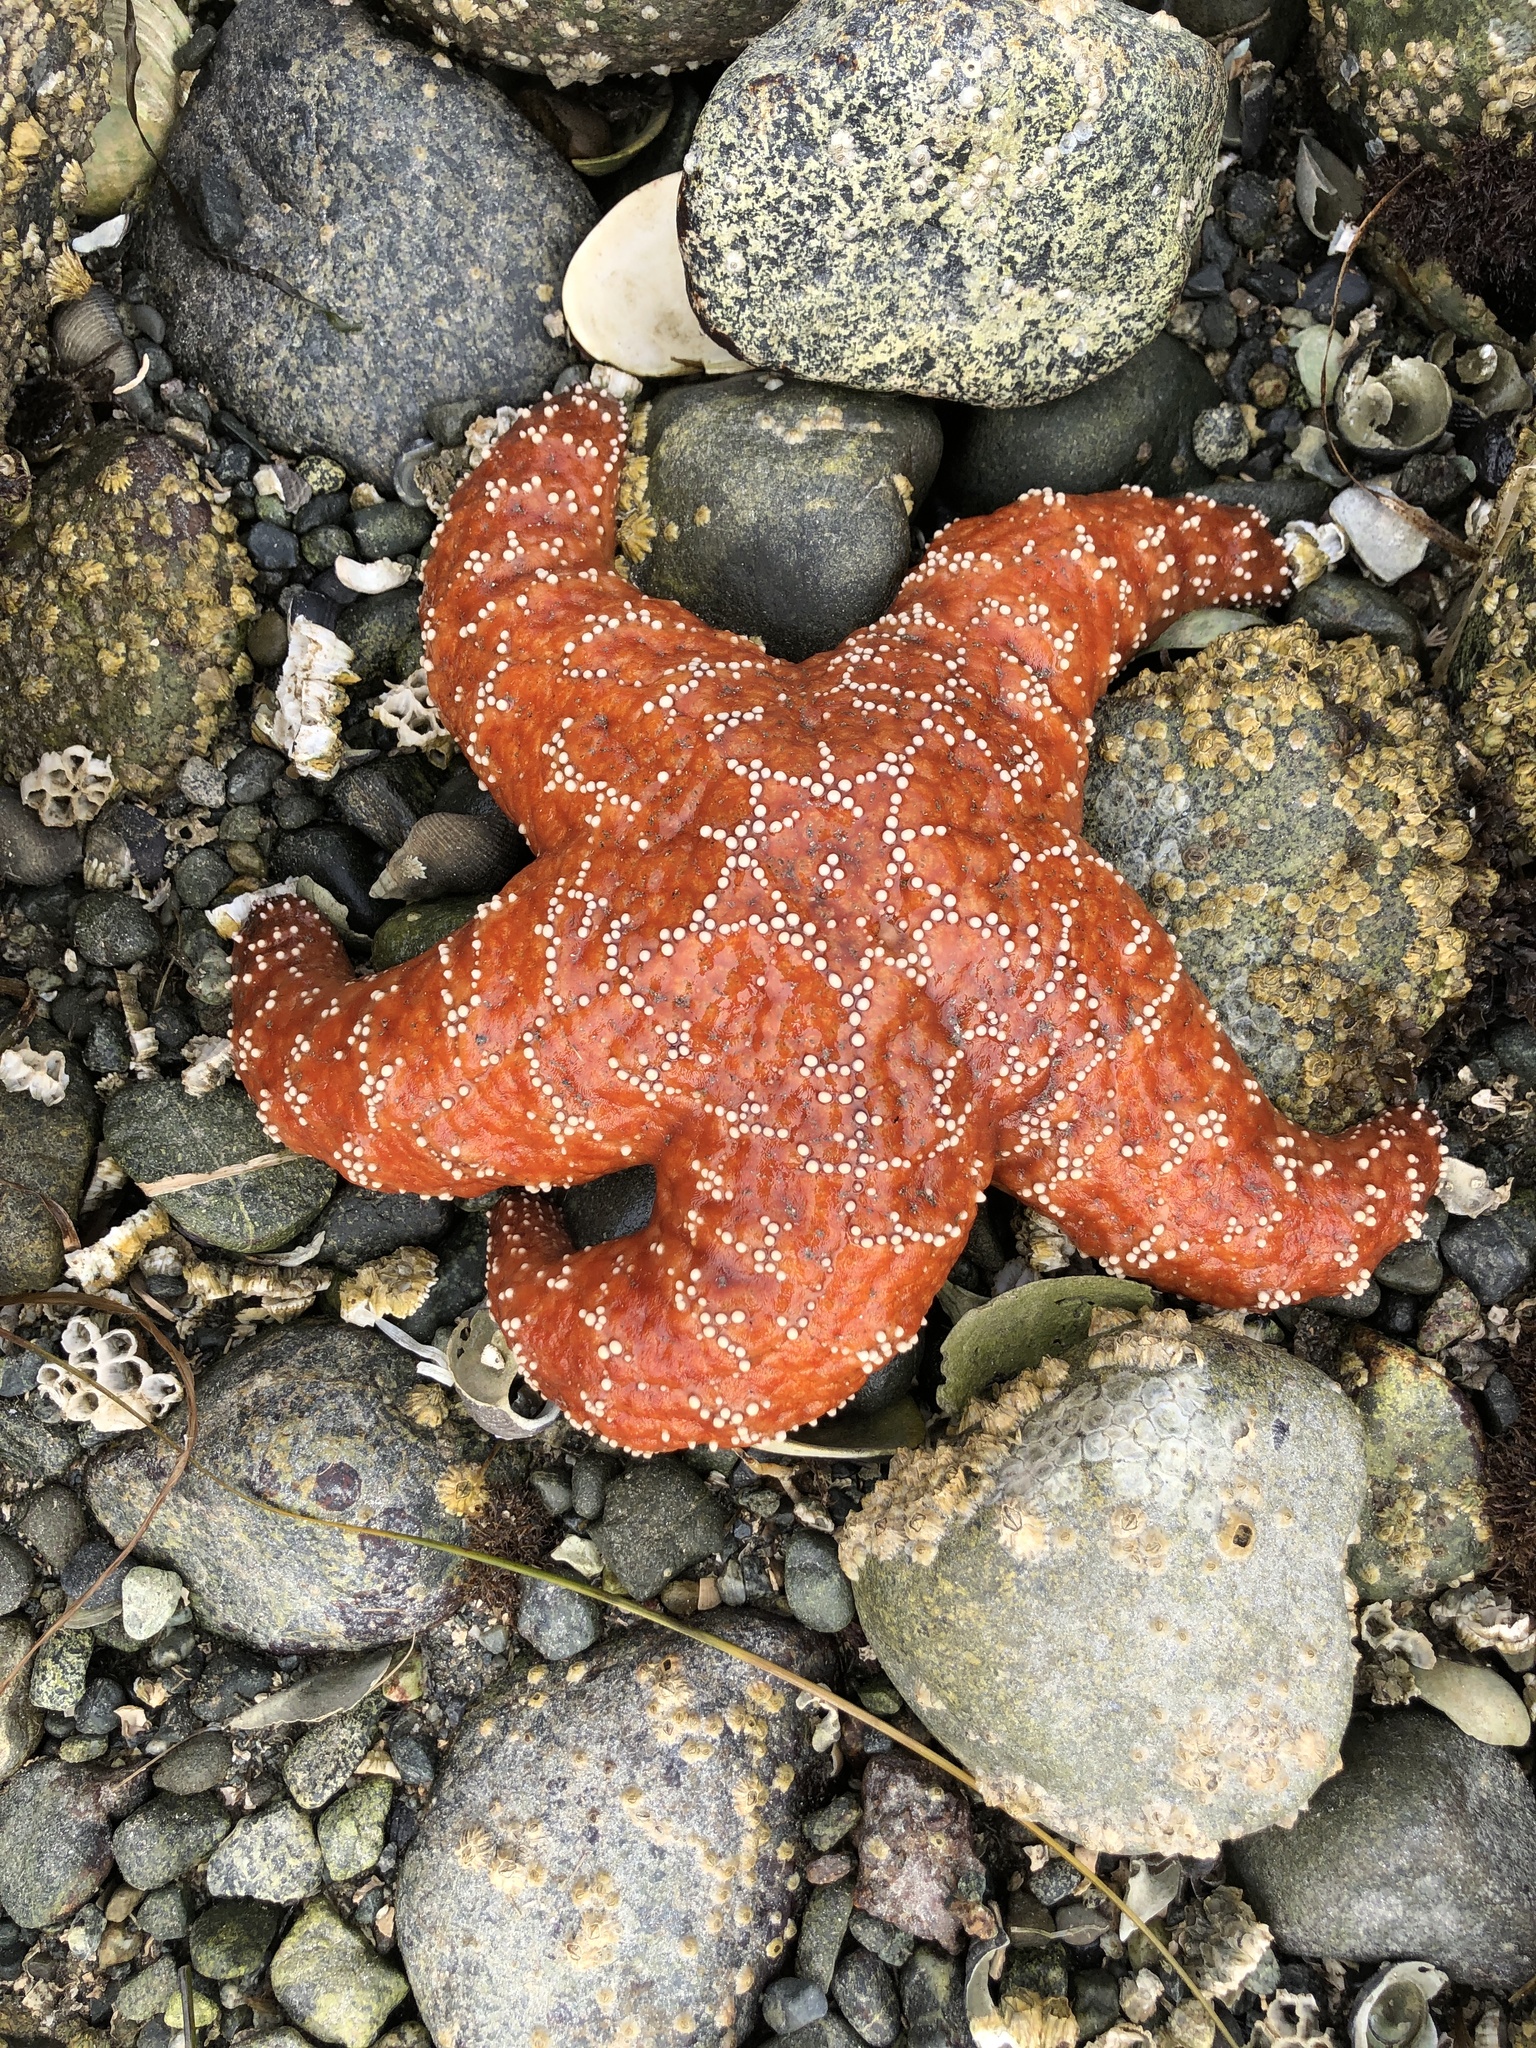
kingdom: Animalia
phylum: Echinodermata
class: Asteroidea
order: Forcipulatida
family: Asteriidae
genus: Pisaster
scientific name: Pisaster ochraceus
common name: Ochre stars
